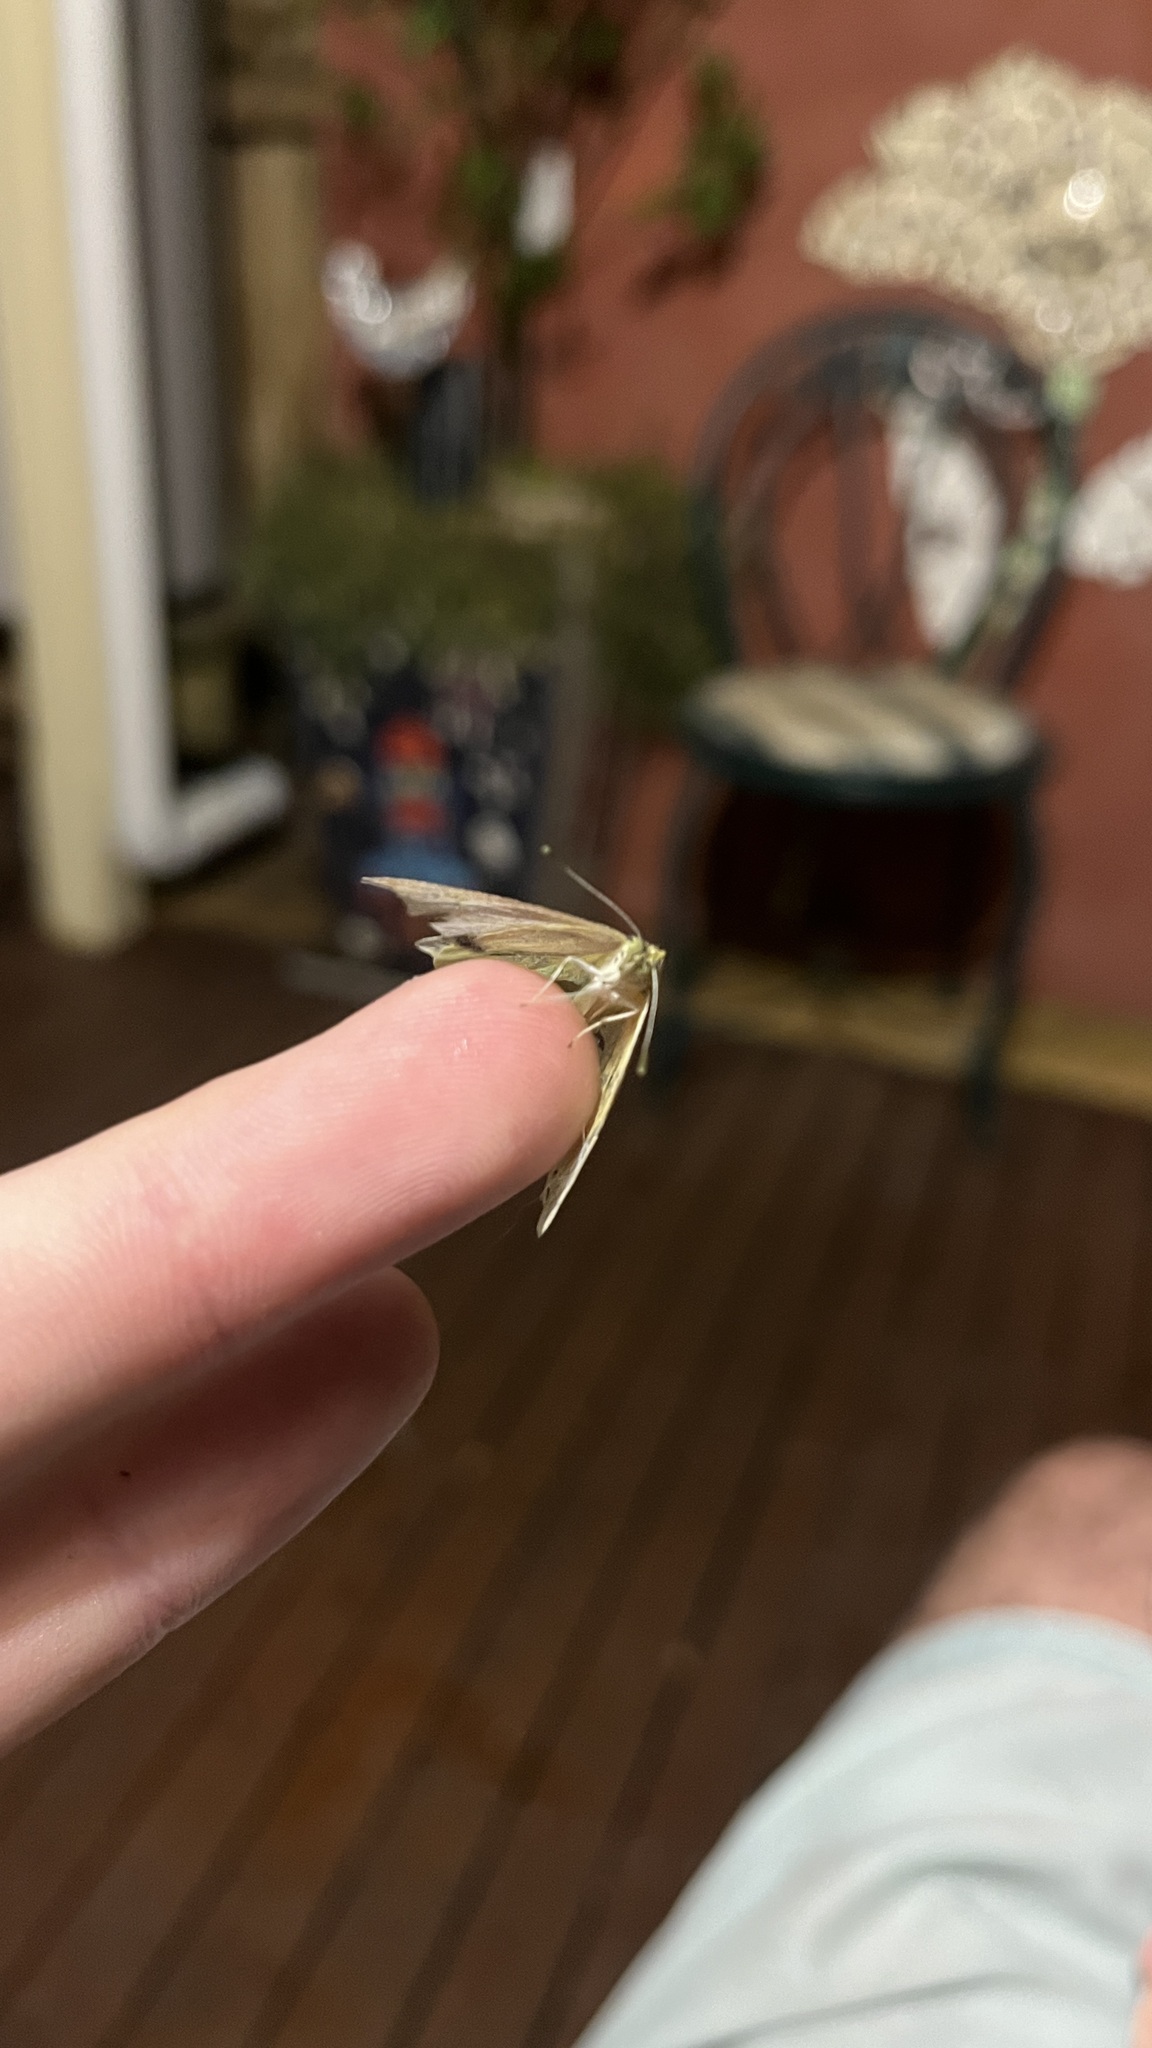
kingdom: Animalia
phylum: Arthropoda
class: Insecta
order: Lepidoptera
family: Pieridae
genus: Pieris
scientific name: Pieris rapae
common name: Small white
